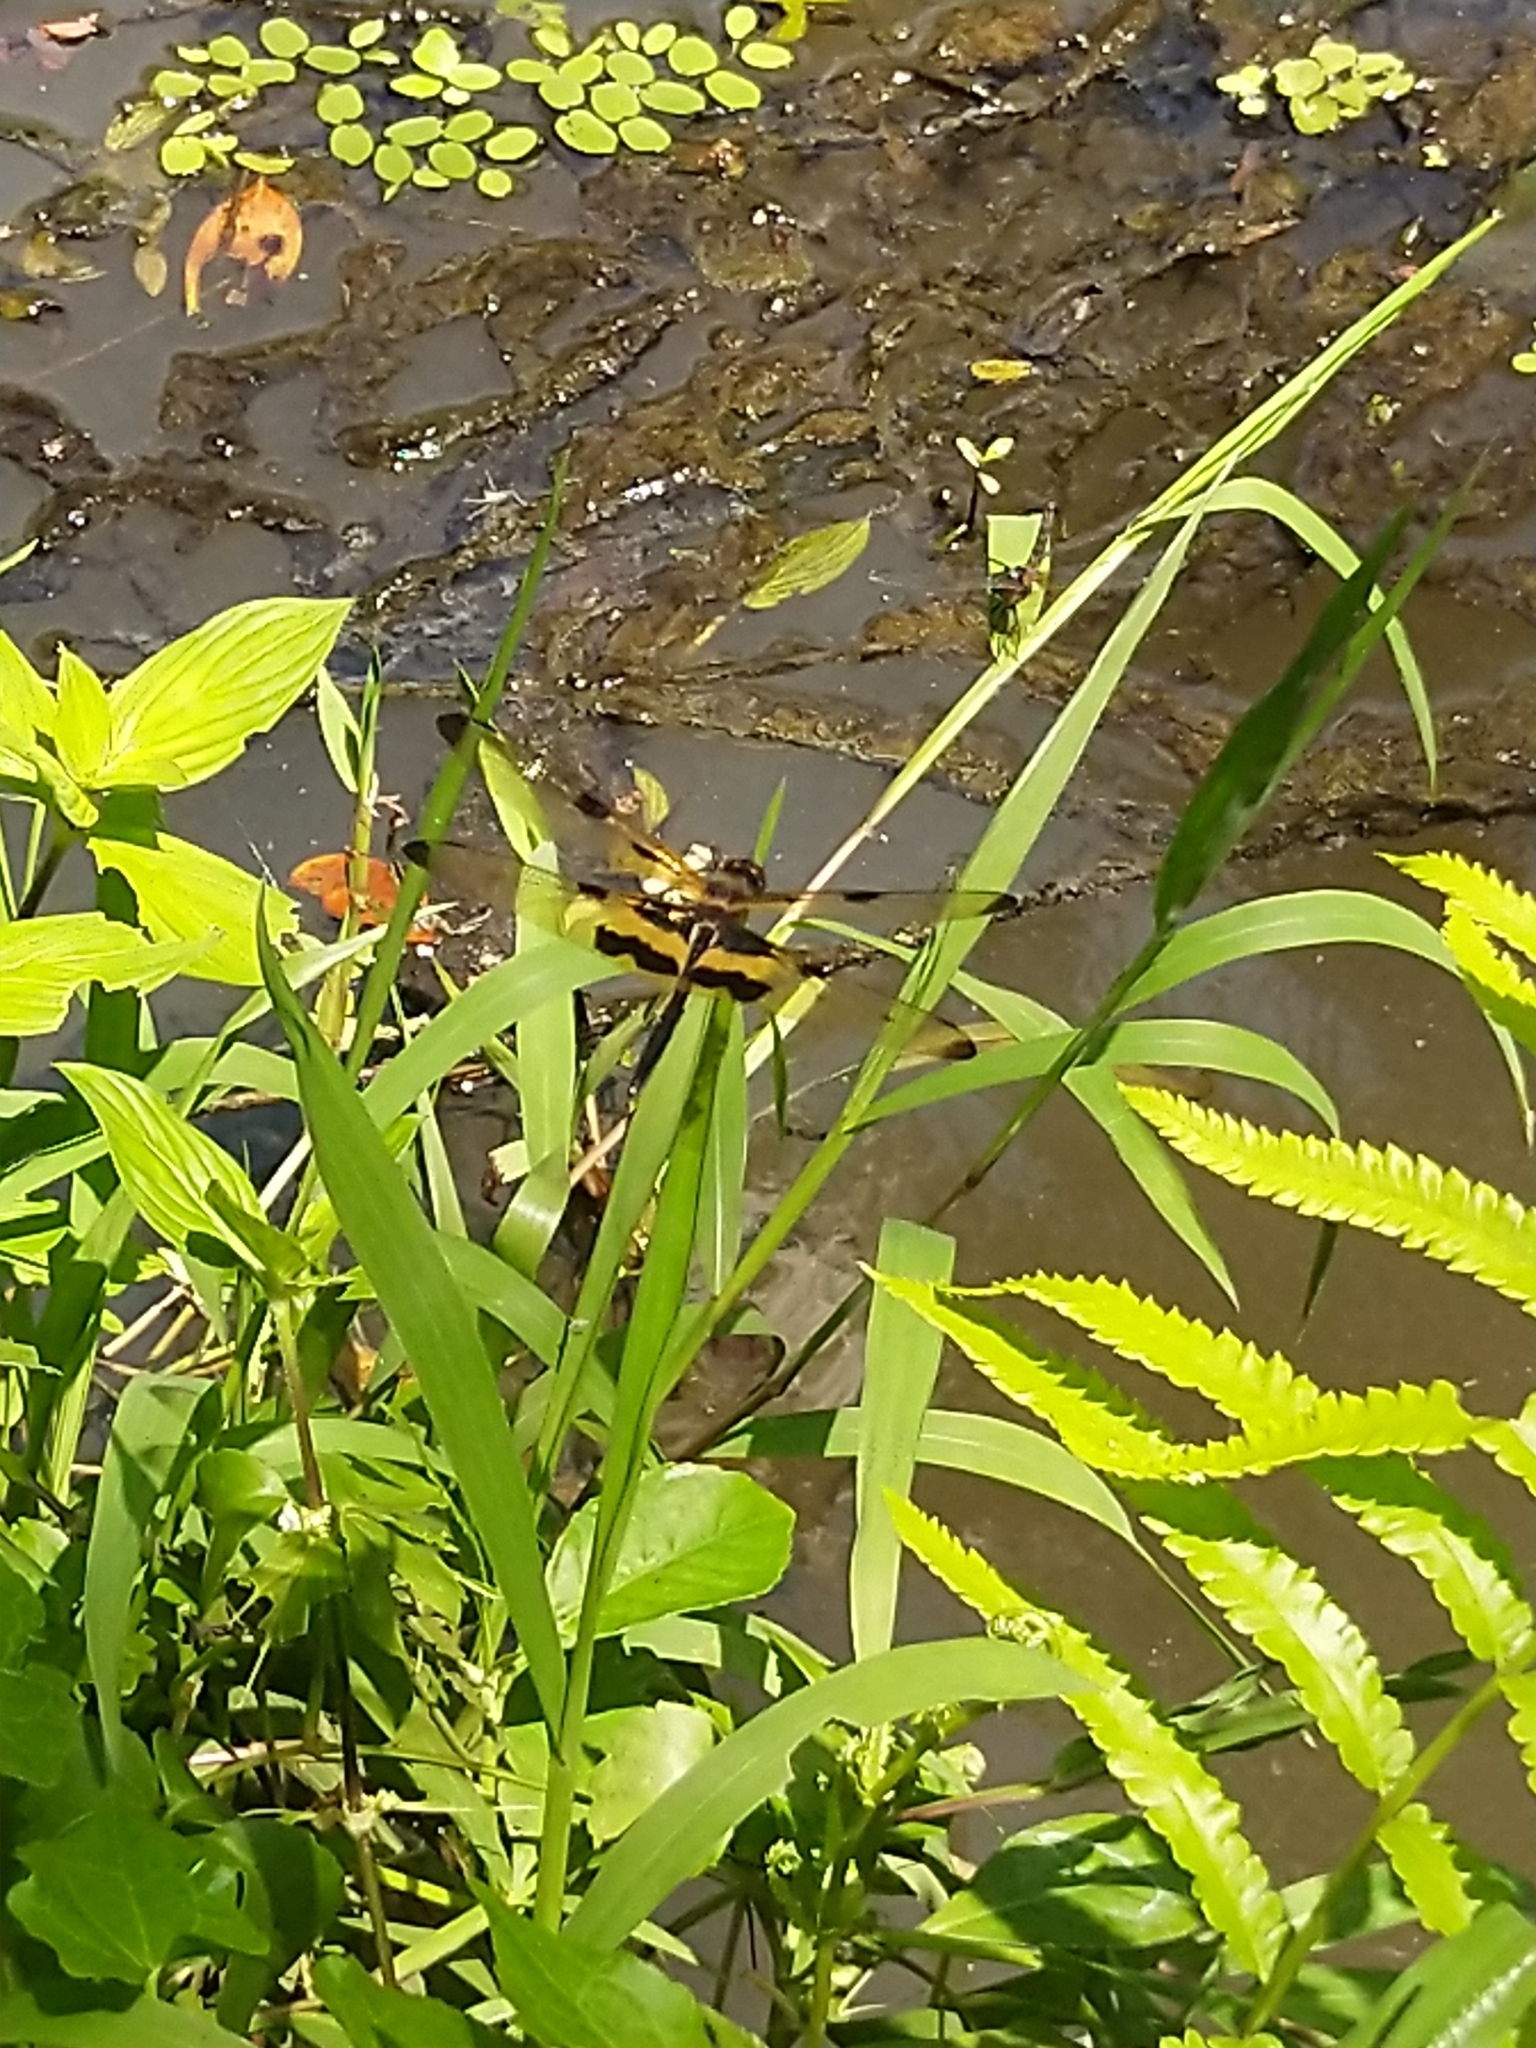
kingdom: Animalia
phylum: Arthropoda
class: Insecta
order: Odonata
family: Libellulidae
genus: Rhyothemis
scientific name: Rhyothemis variegata
